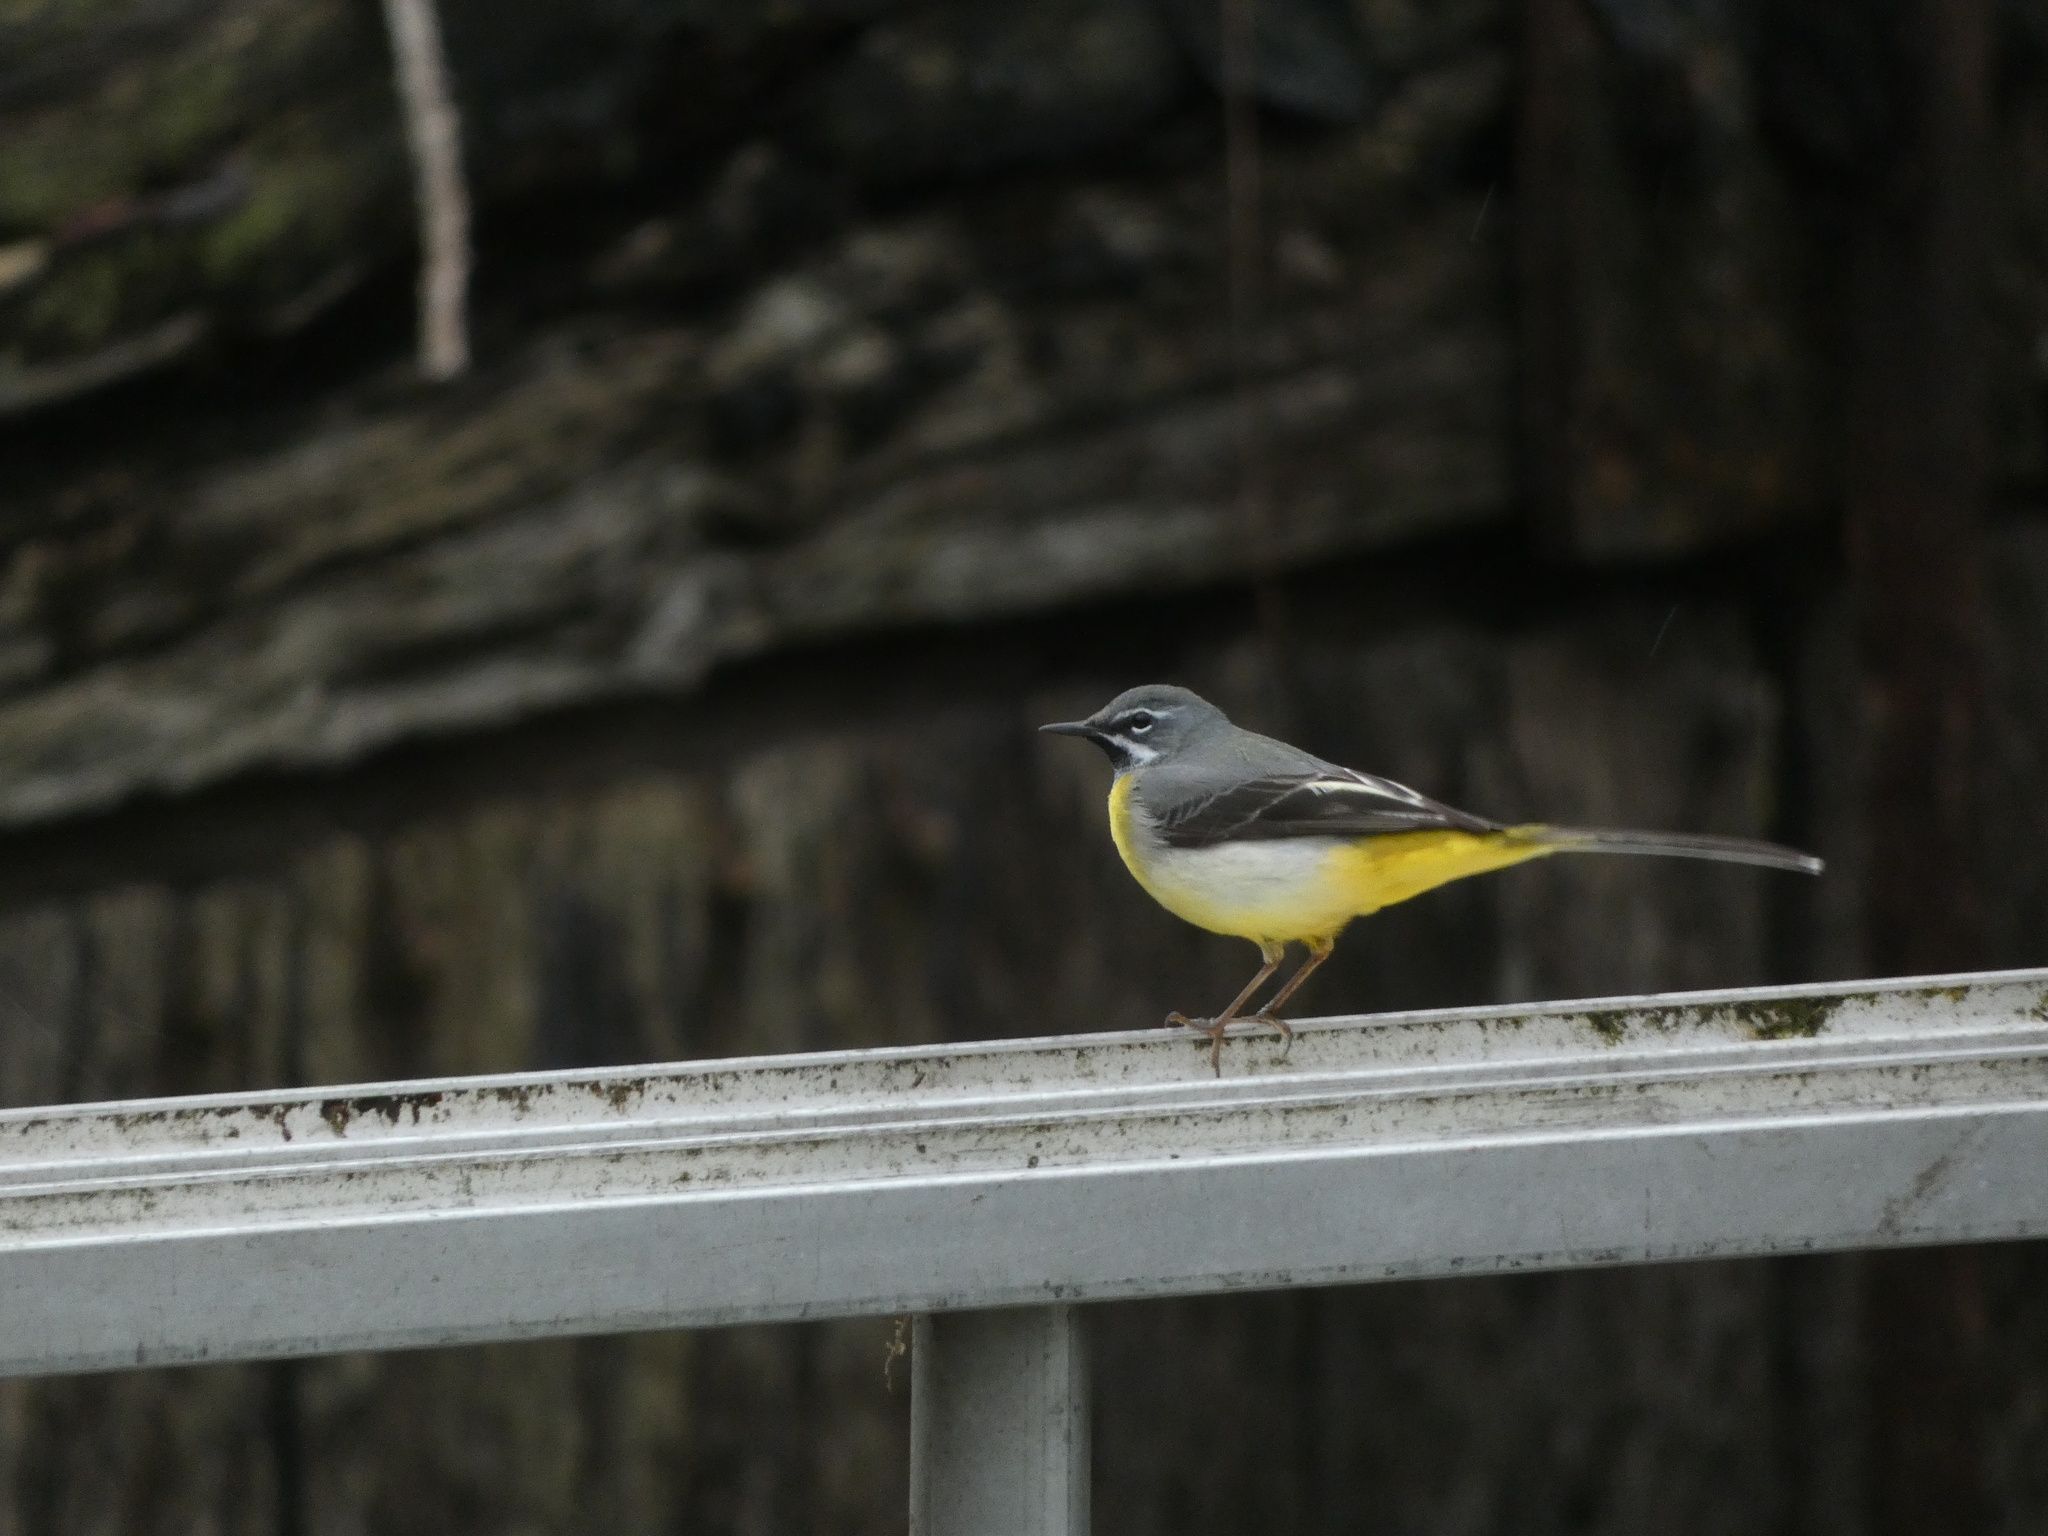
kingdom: Animalia
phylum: Chordata
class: Aves
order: Passeriformes
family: Motacillidae
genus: Motacilla
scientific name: Motacilla cinerea
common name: Grey wagtail
